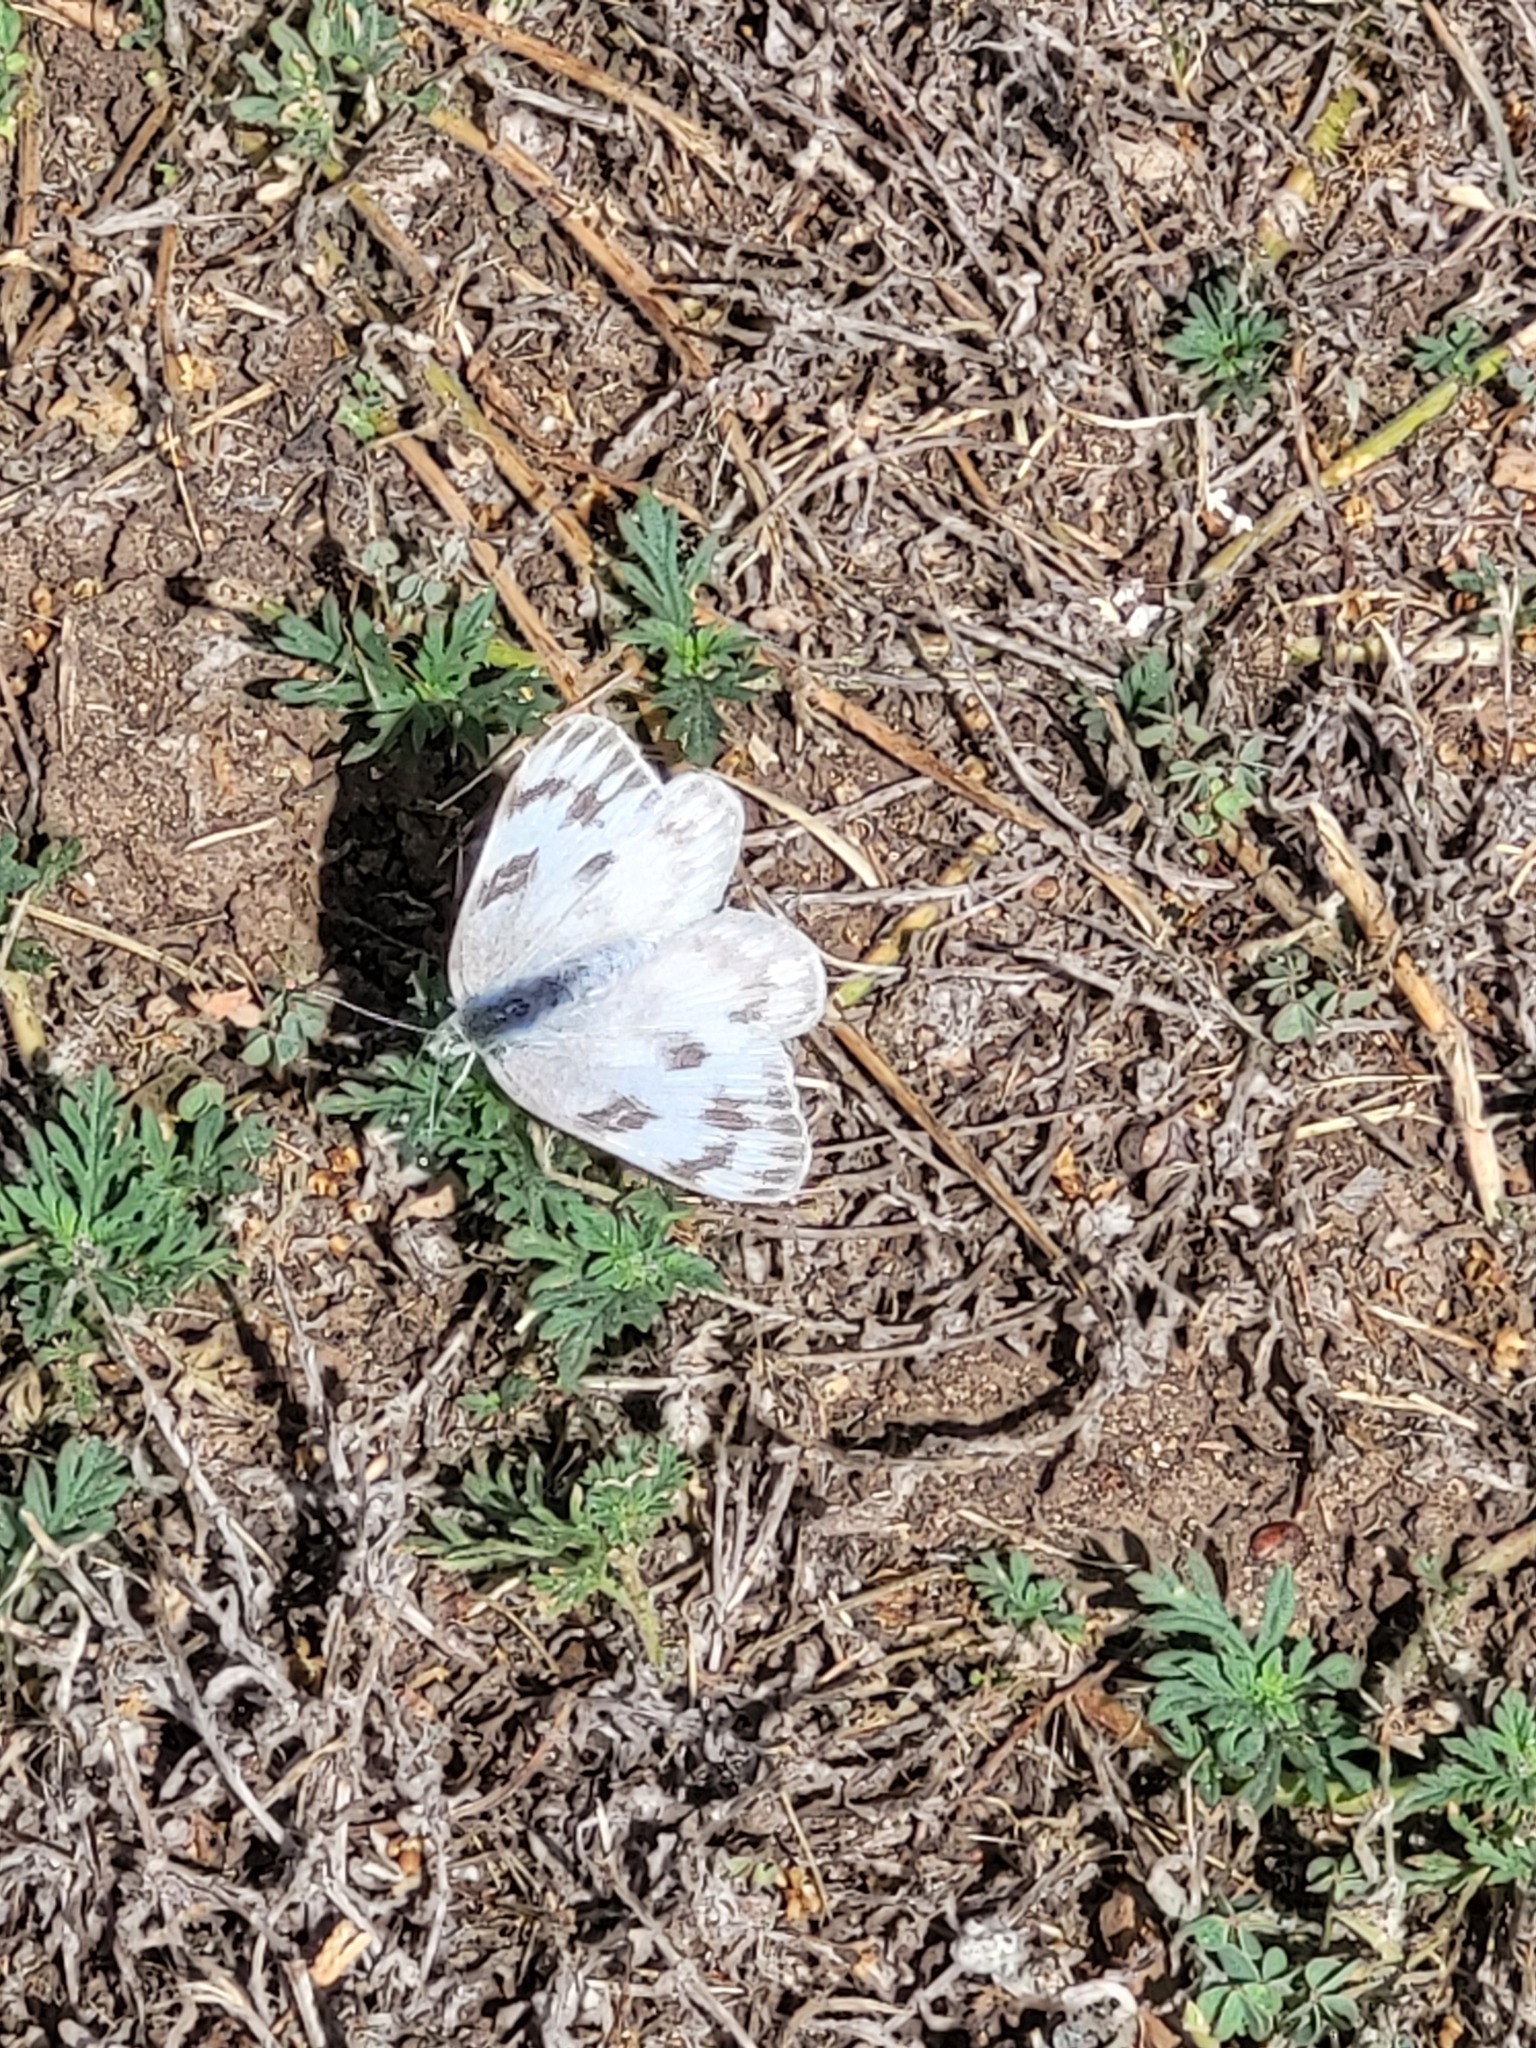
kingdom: Animalia
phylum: Arthropoda
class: Insecta
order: Lepidoptera
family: Pieridae
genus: Pontia
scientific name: Pontia protodice
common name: Checkered white
